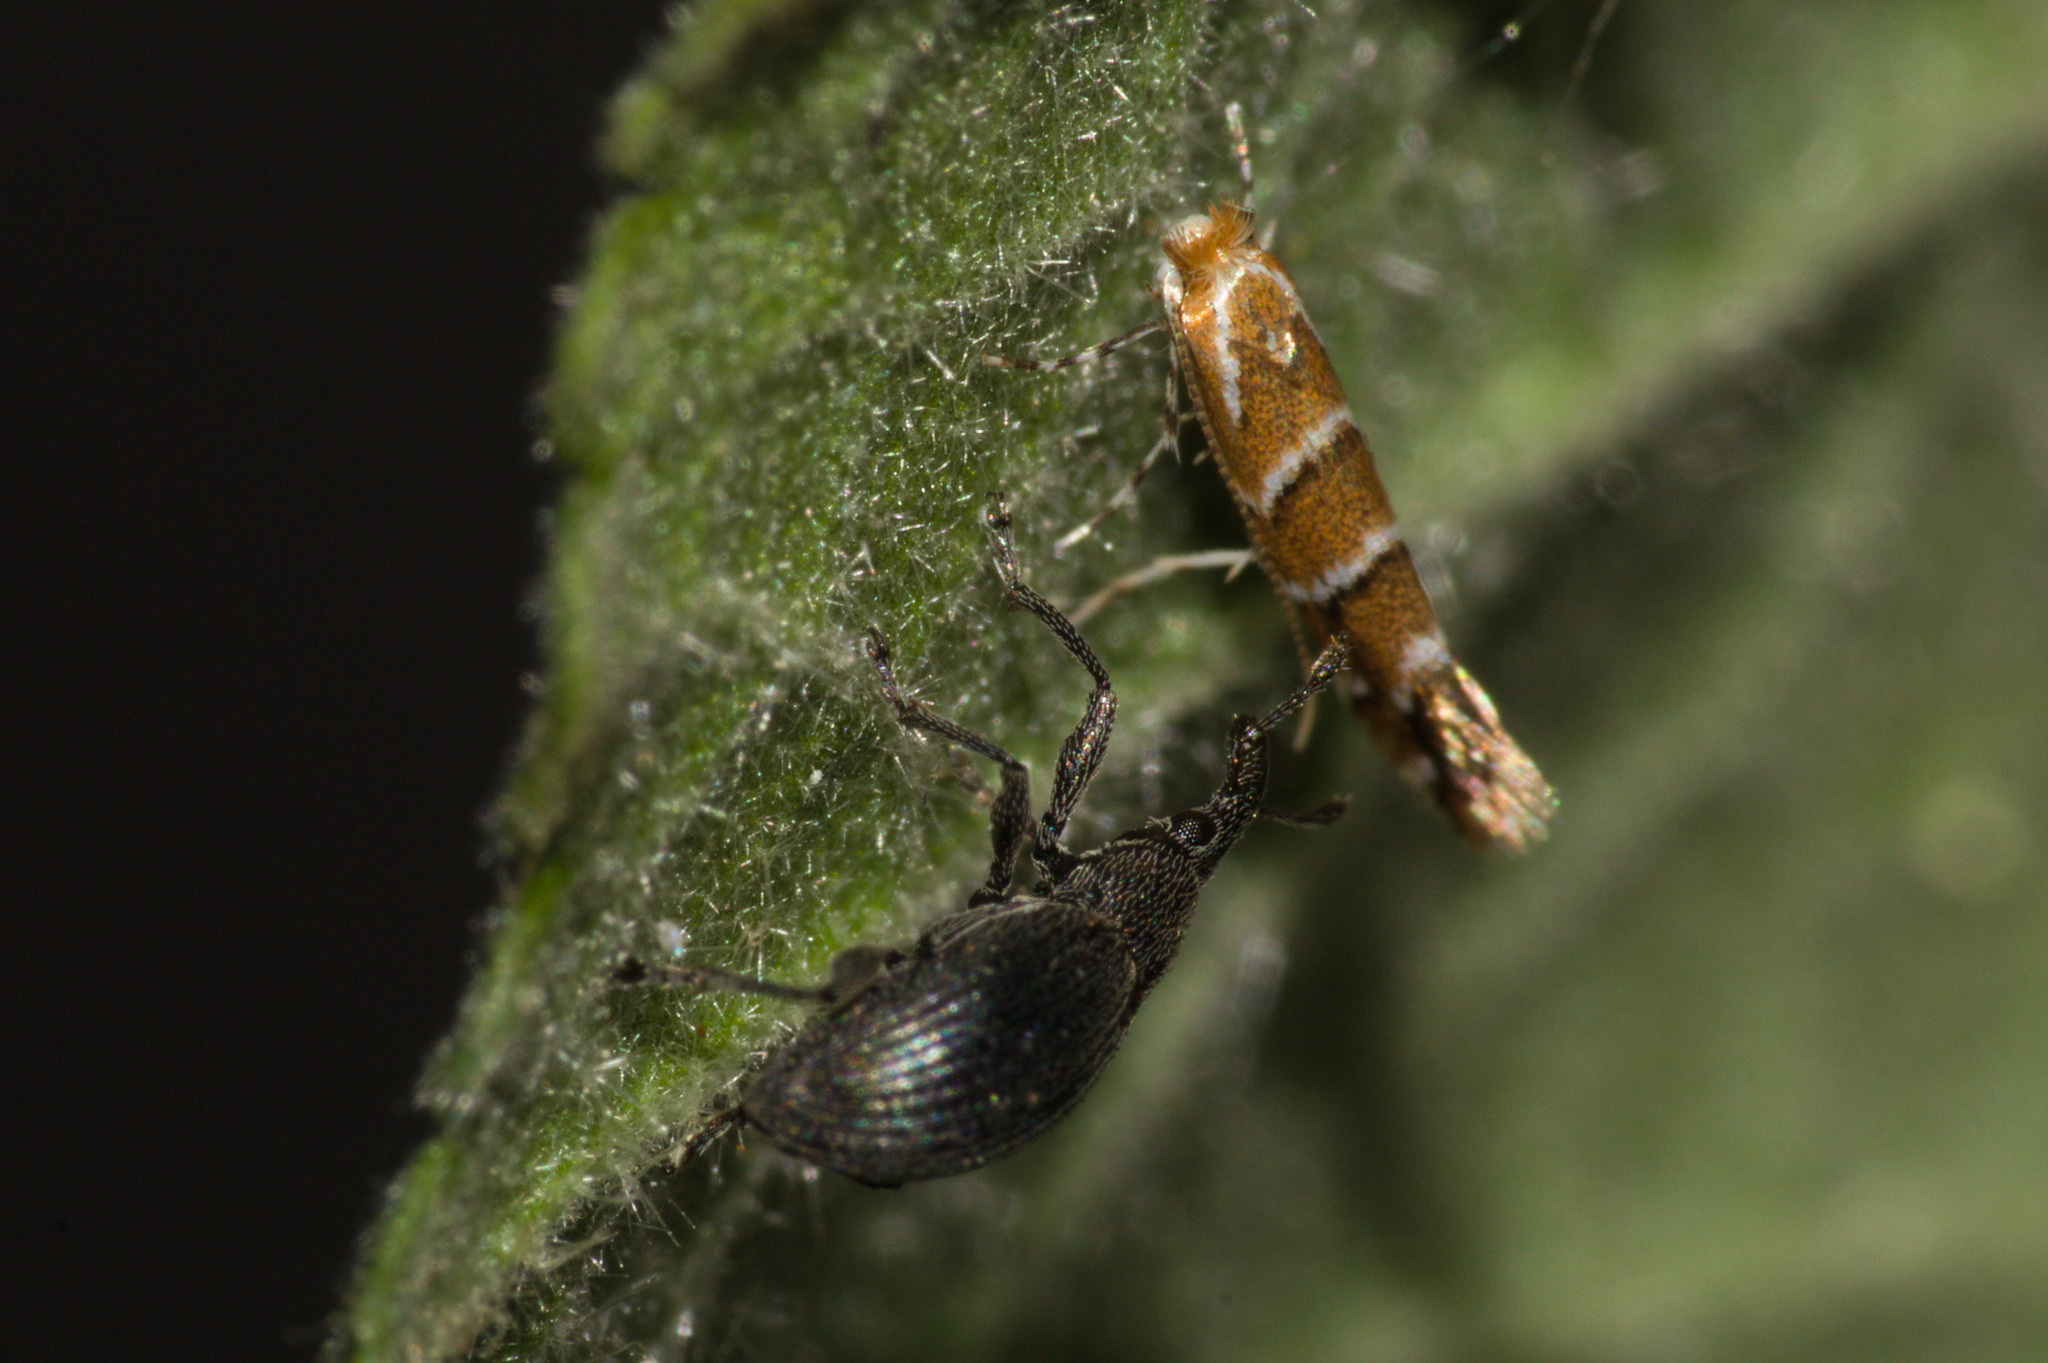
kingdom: Animalia
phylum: Arthropoda
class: Insecta
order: Lepidoptera
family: Gracillariidae
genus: Cameraria
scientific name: Cameraria ohridella
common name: Horse-chestnut leaf-miner
